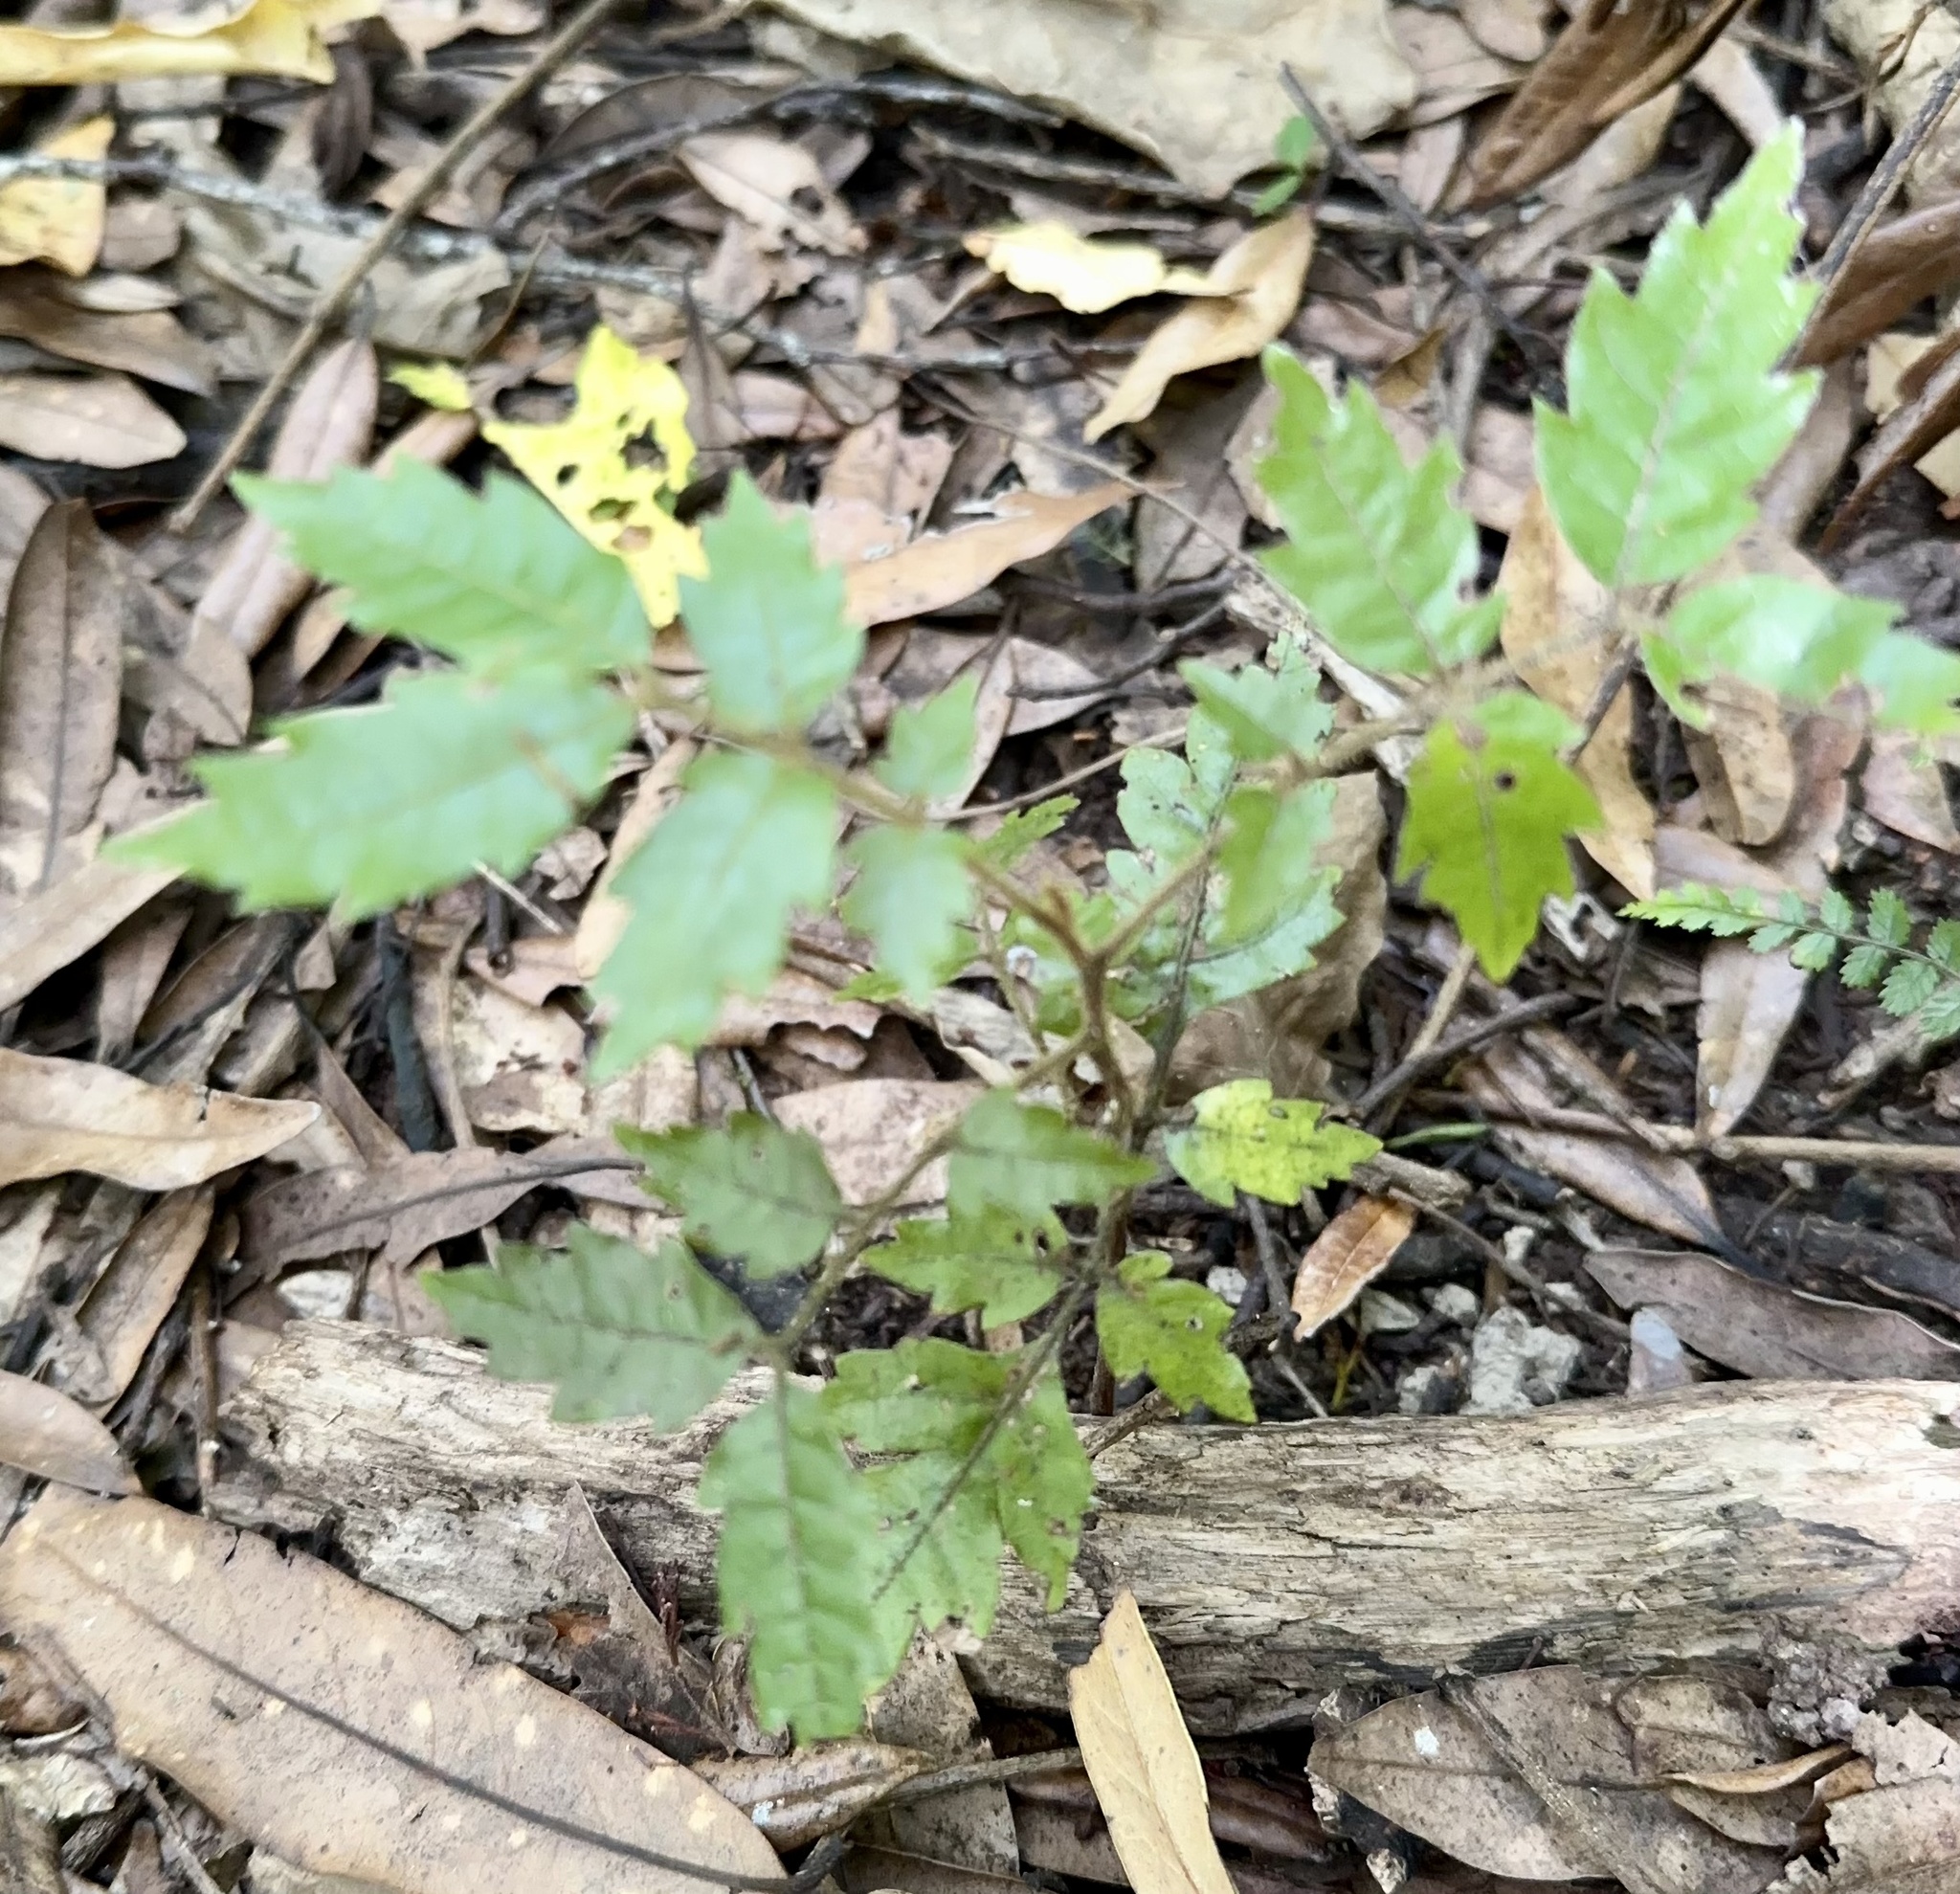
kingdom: Plantae
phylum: Tracheophyta
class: Magnoliopsida
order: Sapindales
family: Sapindaceae
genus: Alectryon
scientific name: Alectryon excelsus
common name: Three kings titoki
